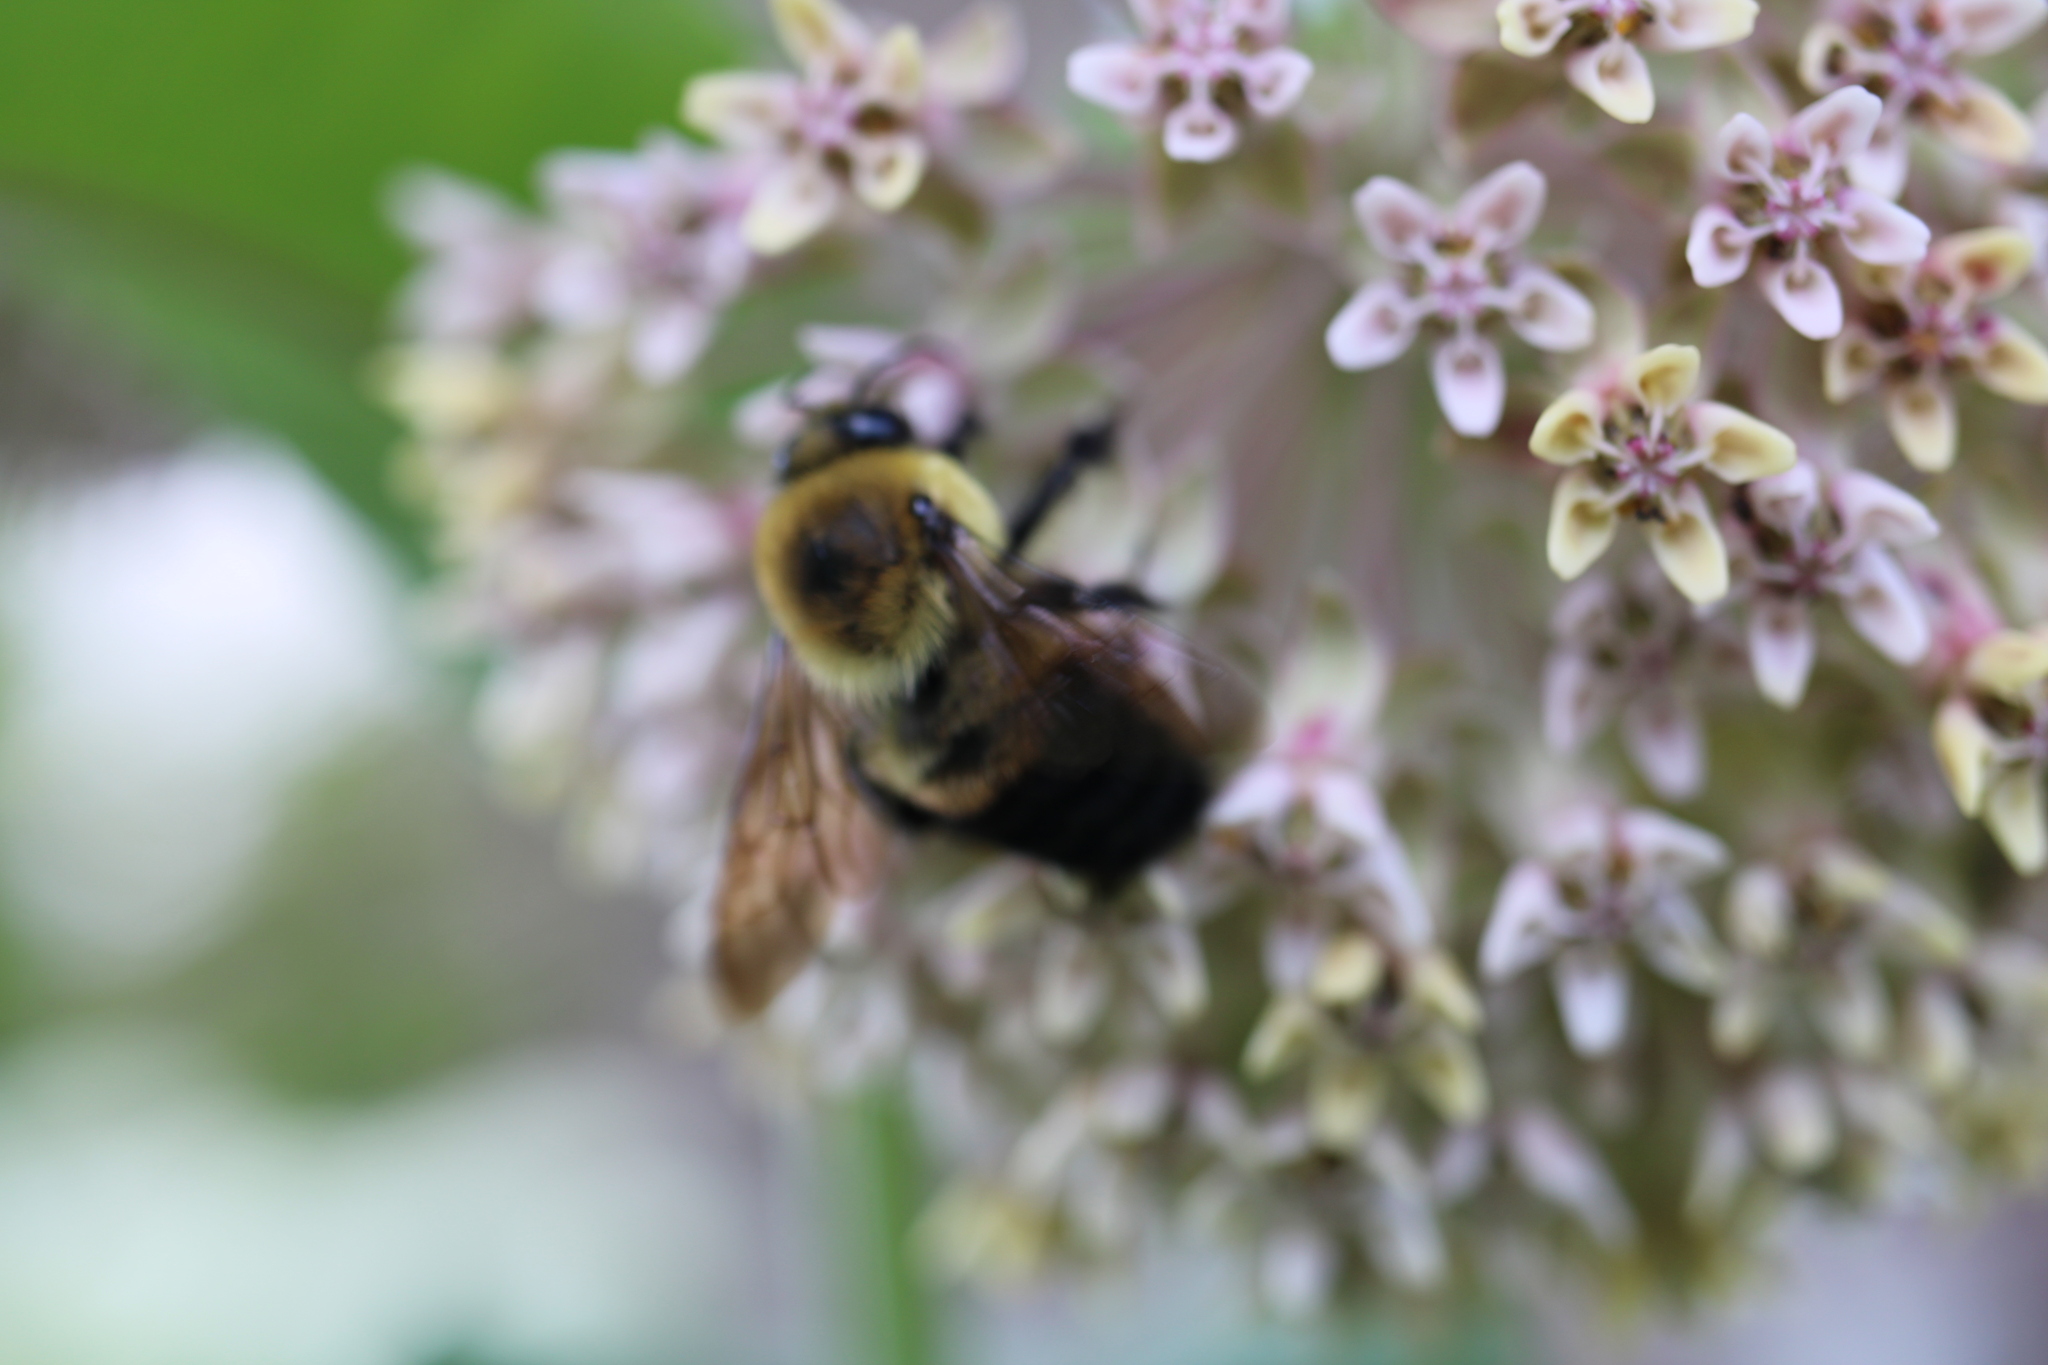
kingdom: Animalia
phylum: Arthropoda
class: Insecta
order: Hymenoptera
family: Apidae
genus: Bombus
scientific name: Bombus griseocollis
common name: Brown-belted bumble bee
